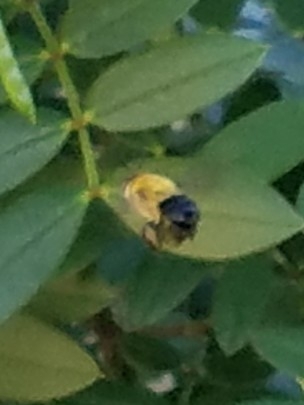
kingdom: Animalia
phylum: Arthropoda
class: Insecta
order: Hymenoptera
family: Apidae
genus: Centris
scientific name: Centris nitida
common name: Oil-collecting bee
